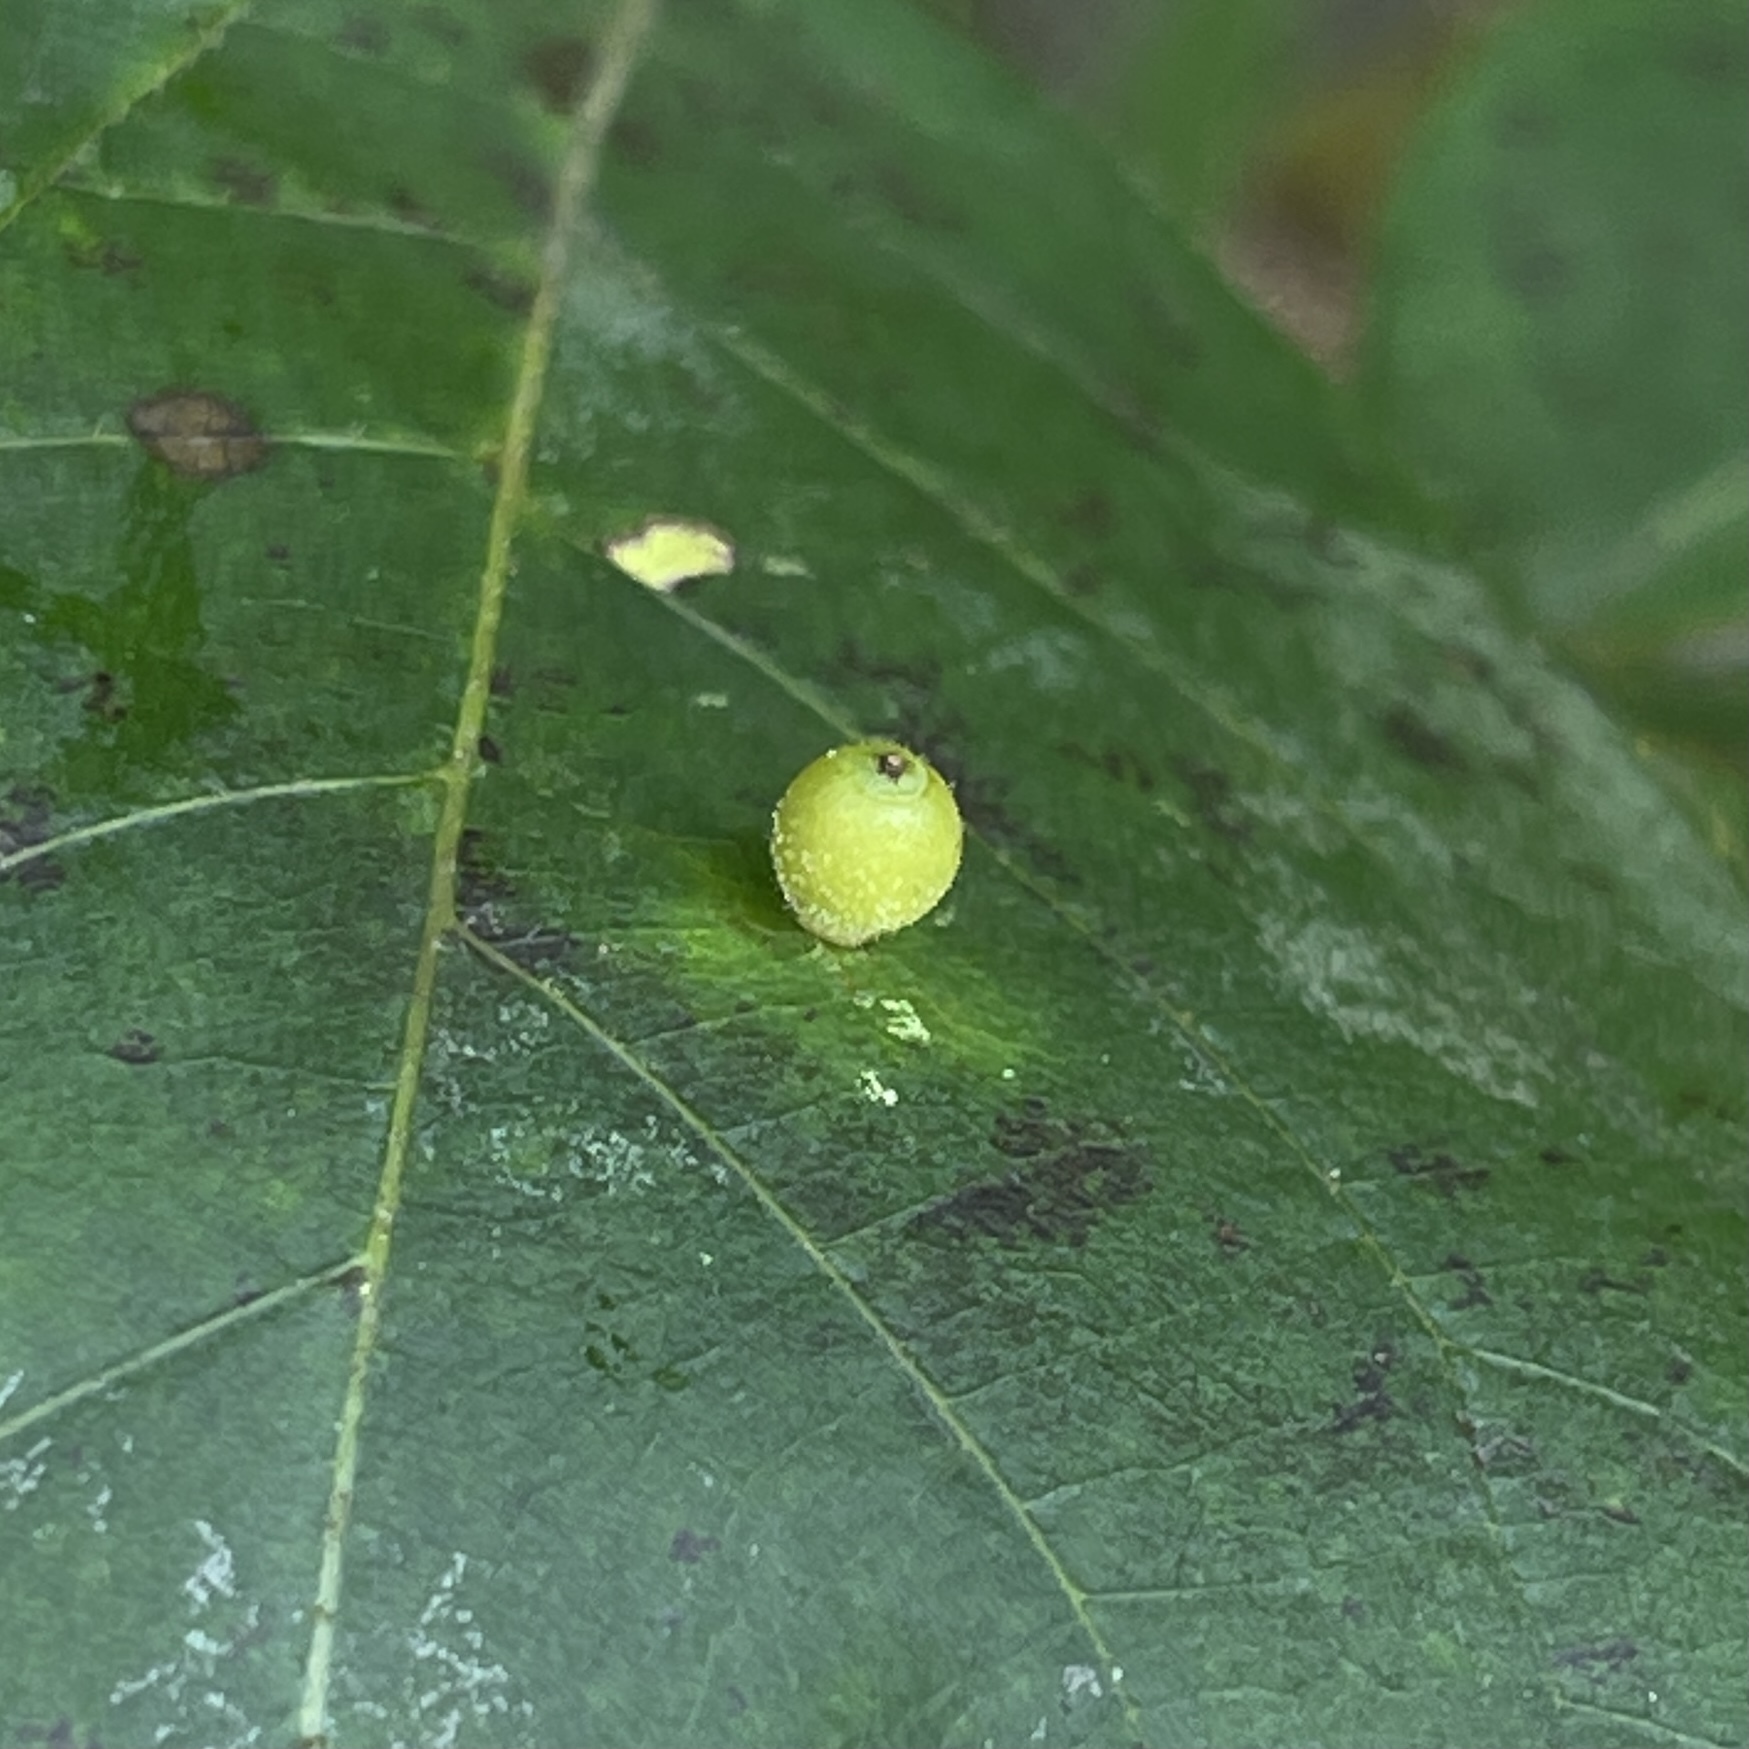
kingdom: Animalia
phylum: Arthropoda
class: Insecta
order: Diptera
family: Cecidomyiidae
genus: Caryomyia
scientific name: Caryomyia viscidolium
